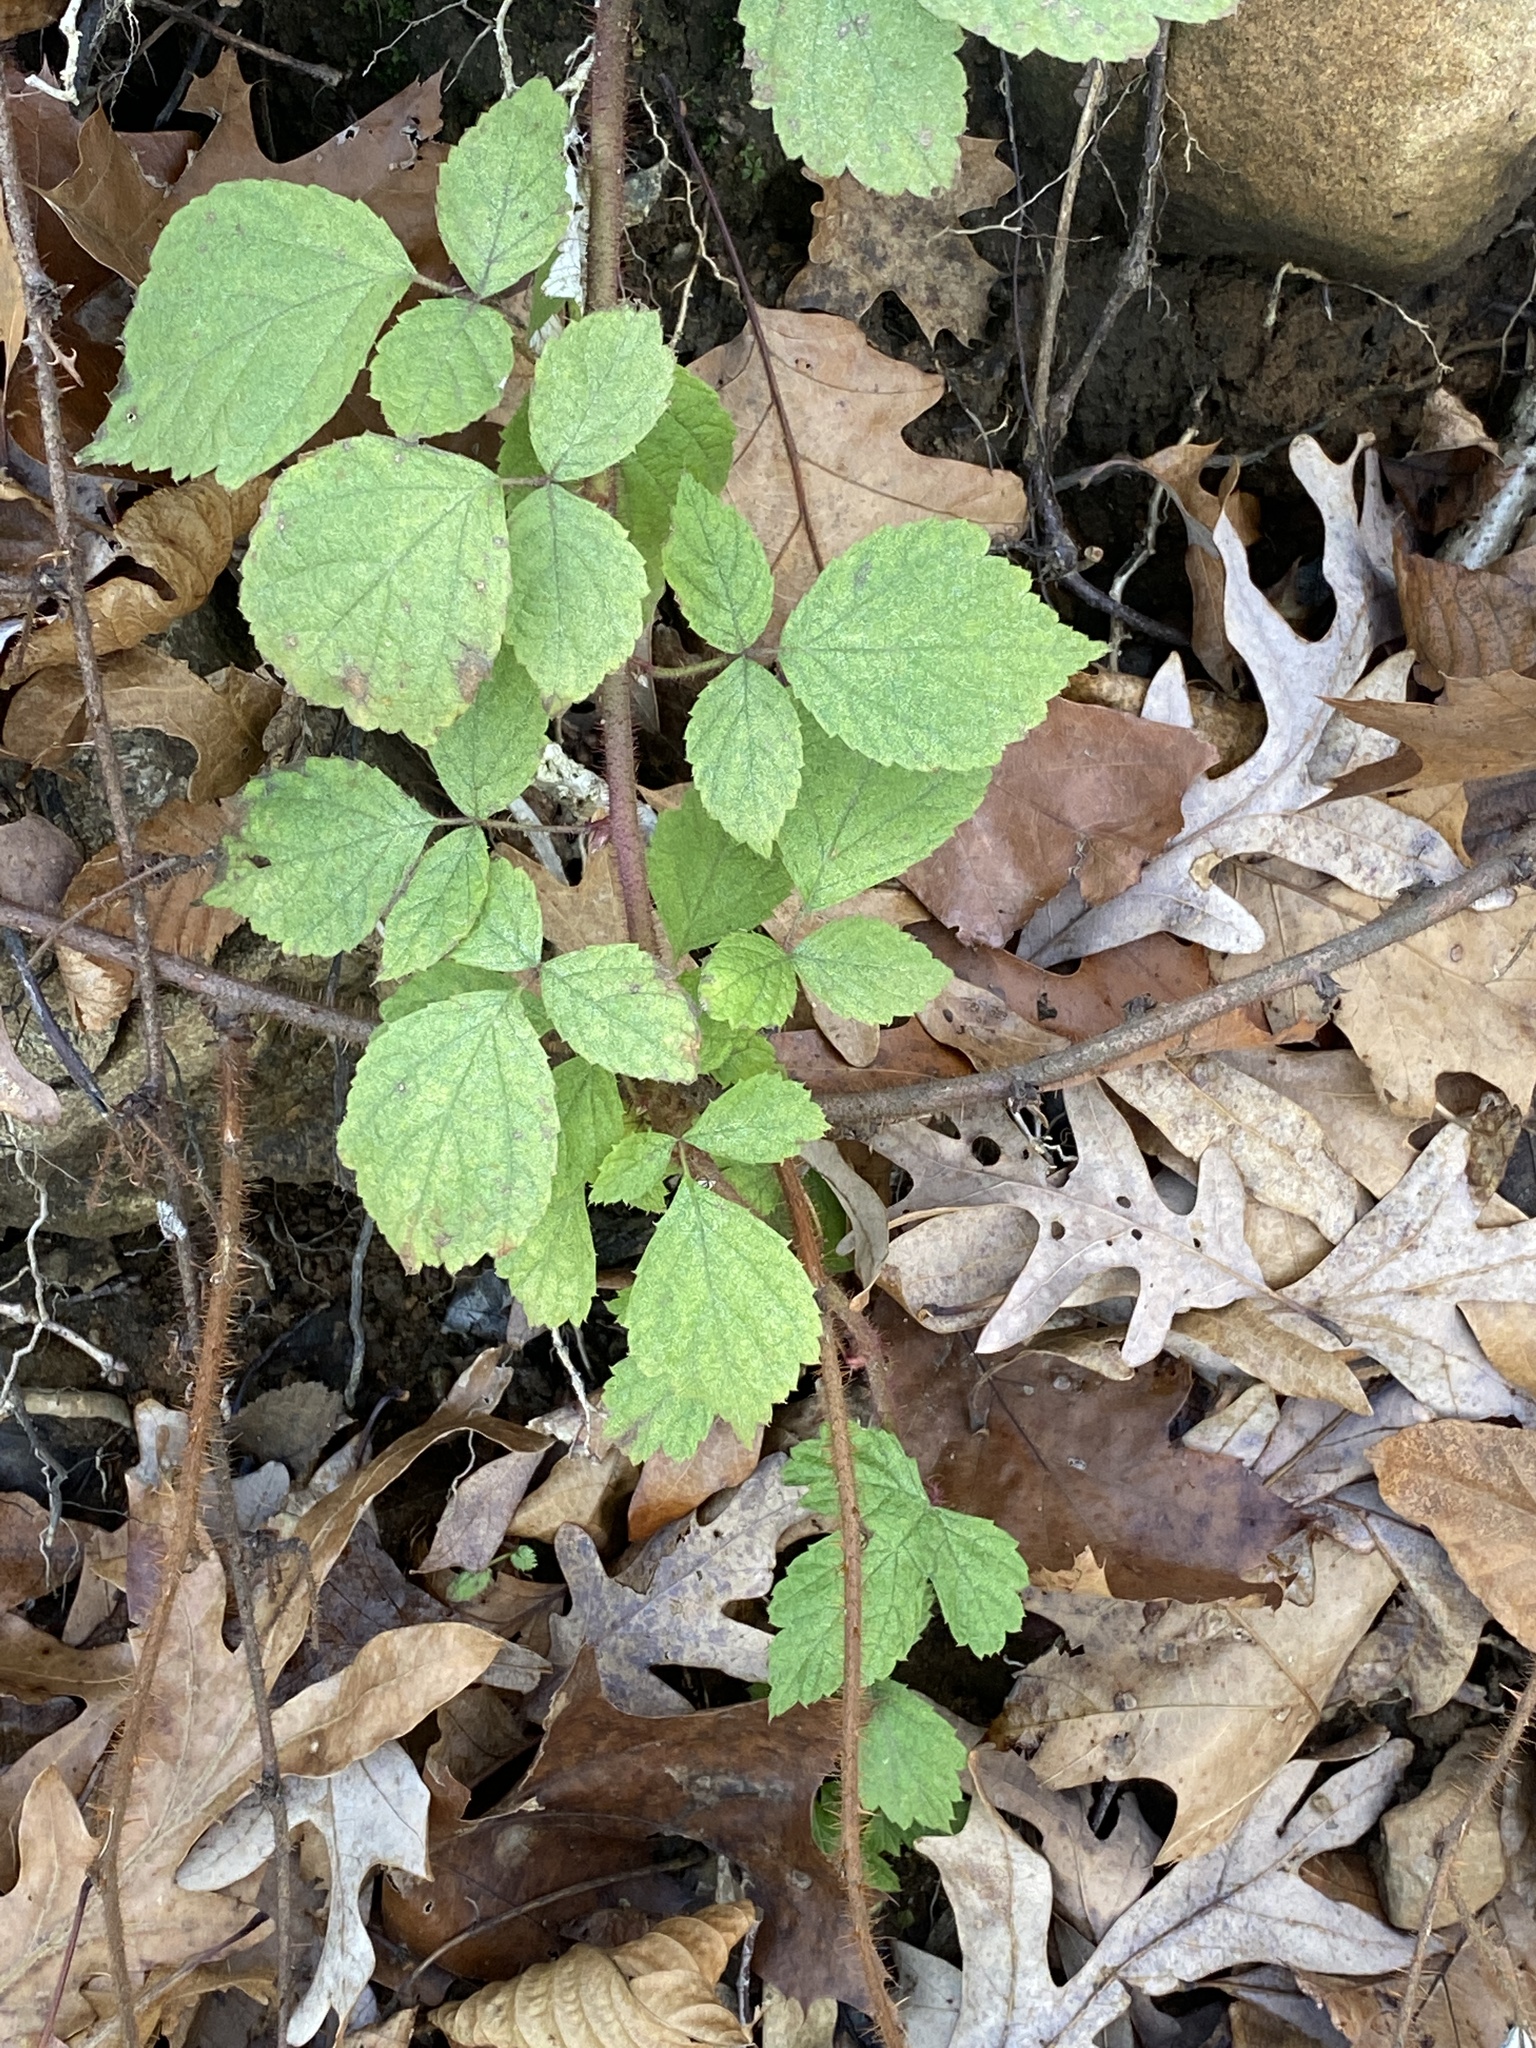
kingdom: Plantae
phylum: Tracheophyta
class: Magnoliopsida
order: Rosales
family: Rosaceae
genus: Rubus
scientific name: Rubus phoenicolasius
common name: Japanese wineberry
